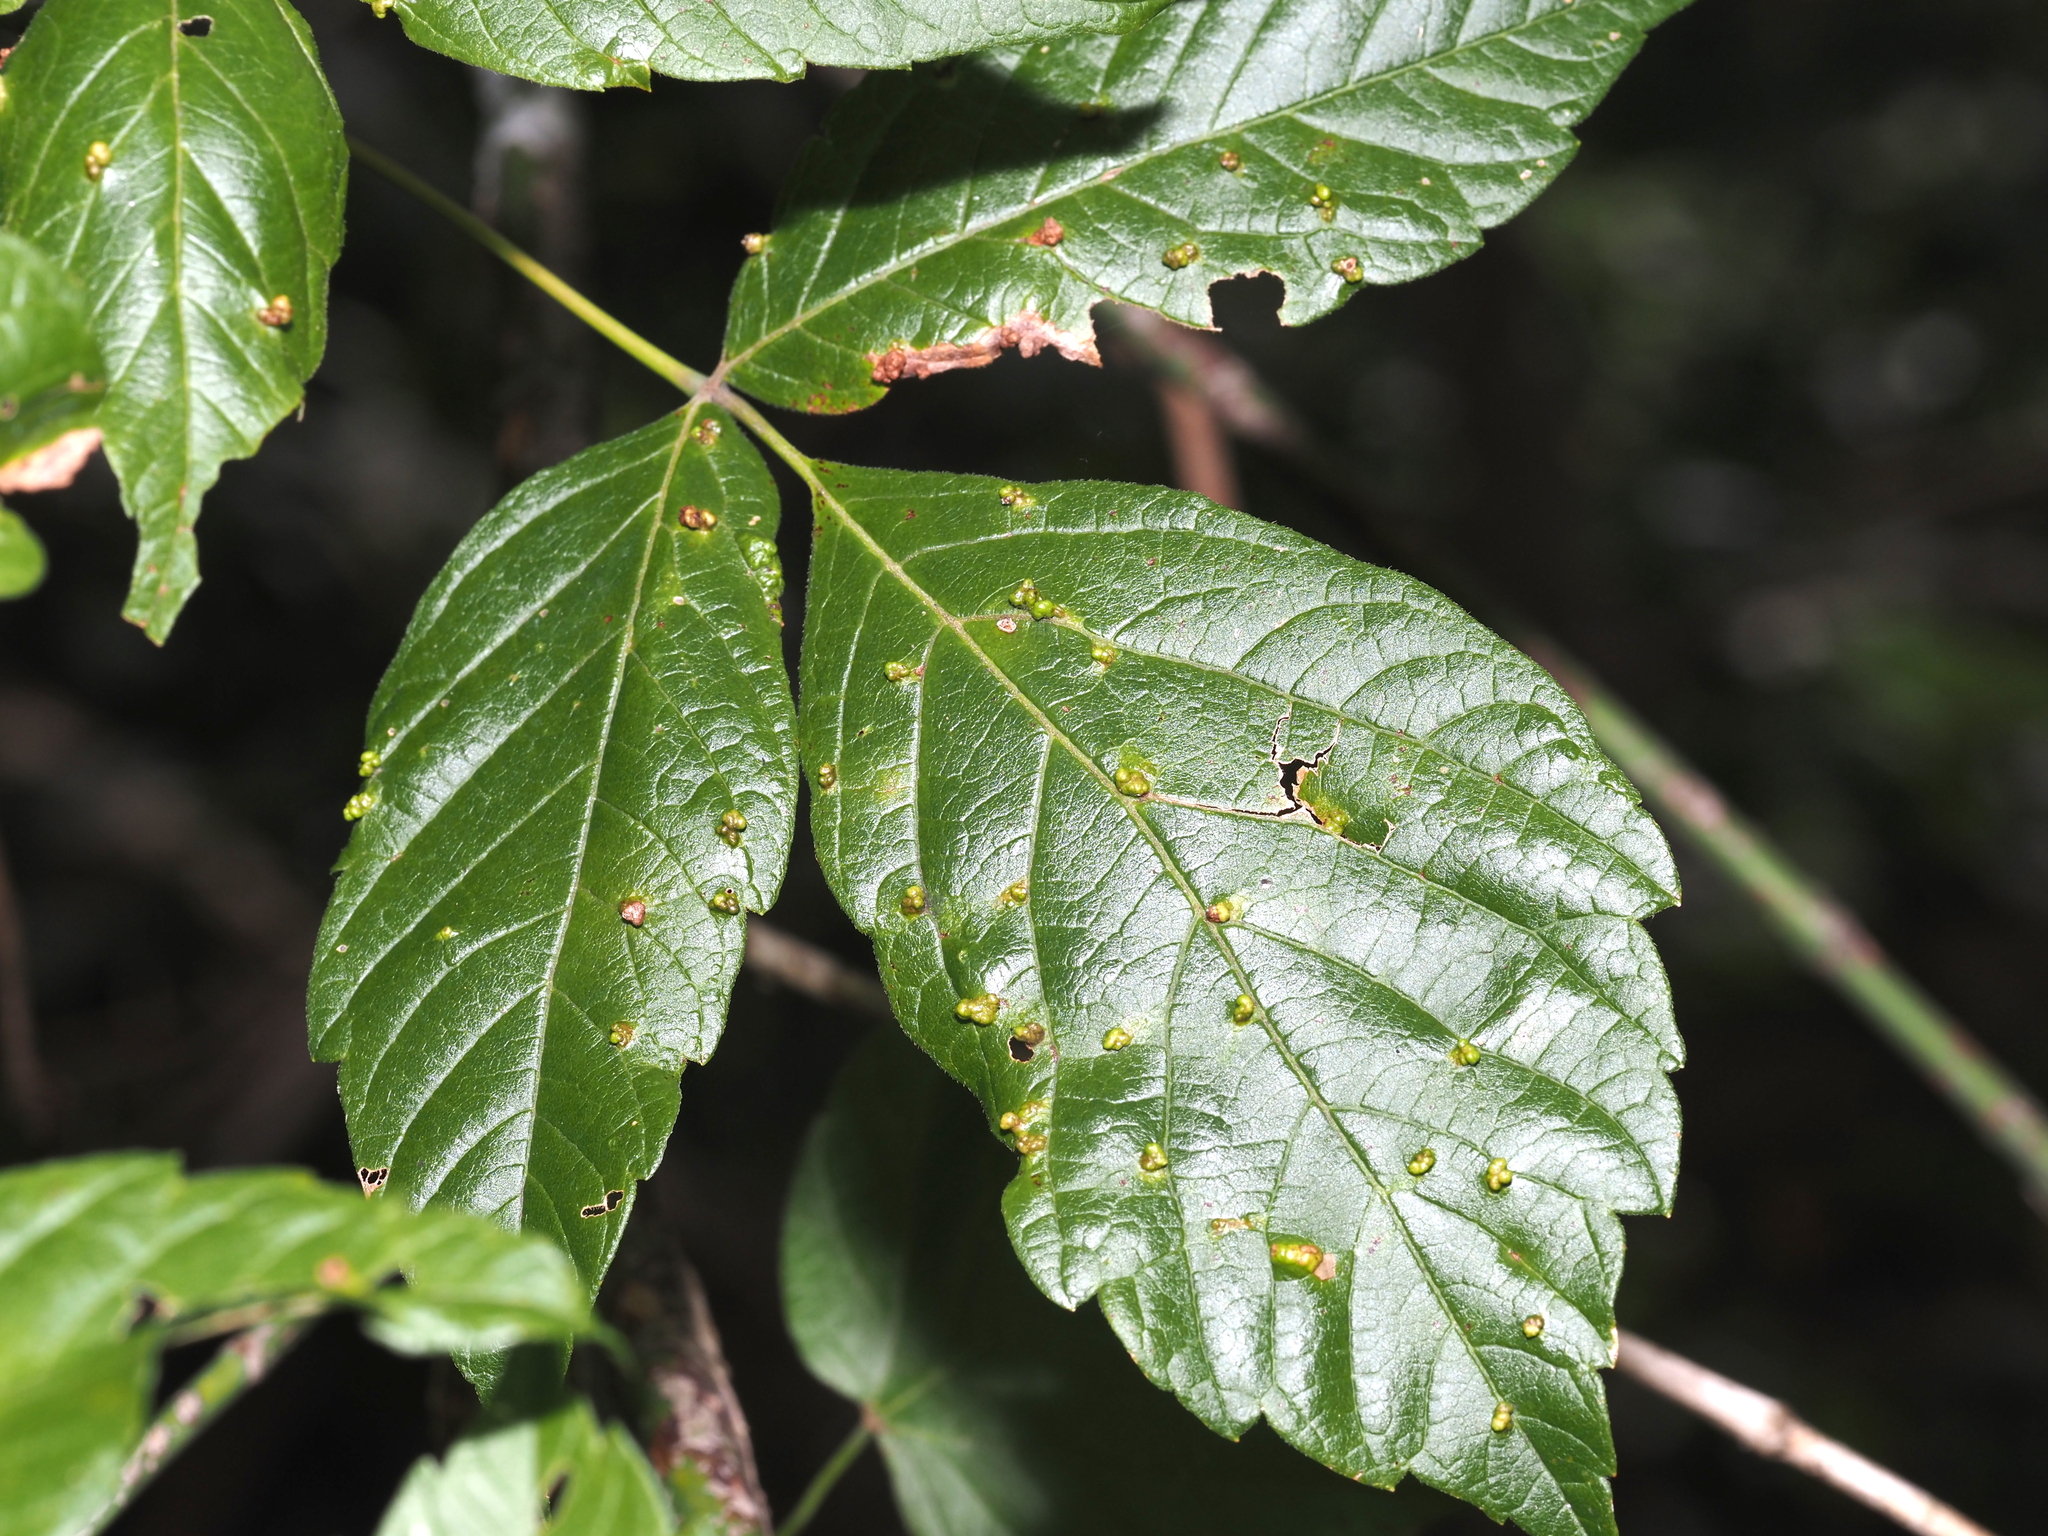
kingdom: Animalia
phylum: Arthropoda
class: Arachnida
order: Trombidiformes
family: Eriophyidae
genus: Aceria
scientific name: Aceria
